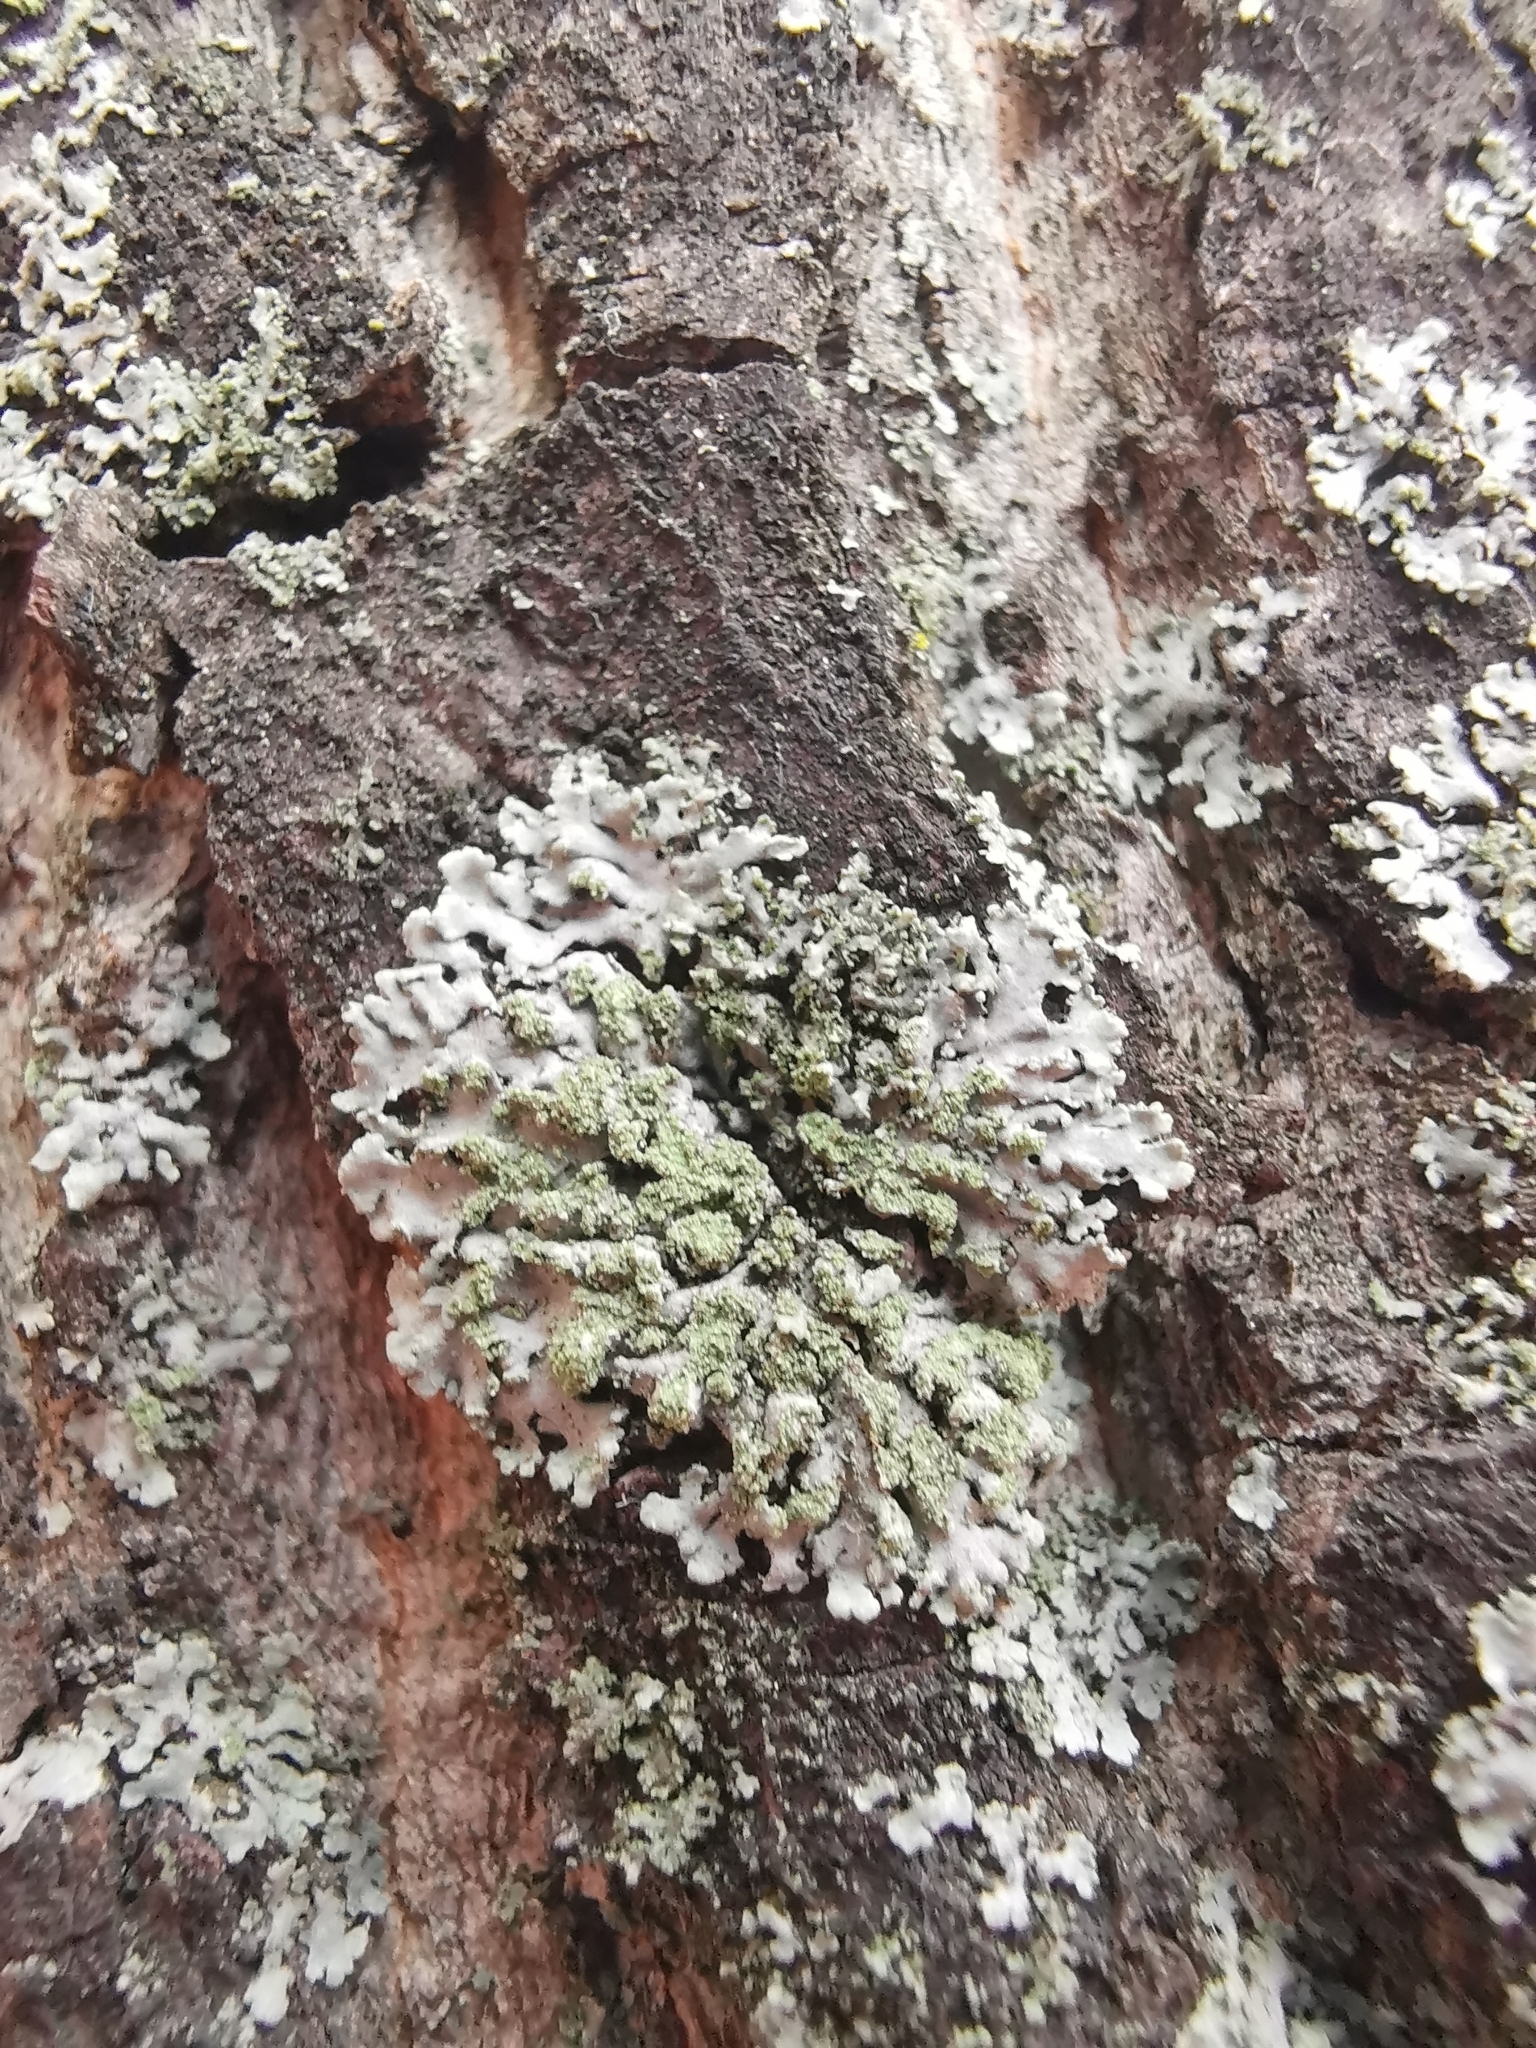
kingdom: Fungi
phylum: Ascomycota
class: Lecanoromycetes
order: Caliciales
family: Physciaceae
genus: Phaeophyscia
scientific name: Phaeophyscia orbicularis
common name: Mealy shadow lichen
